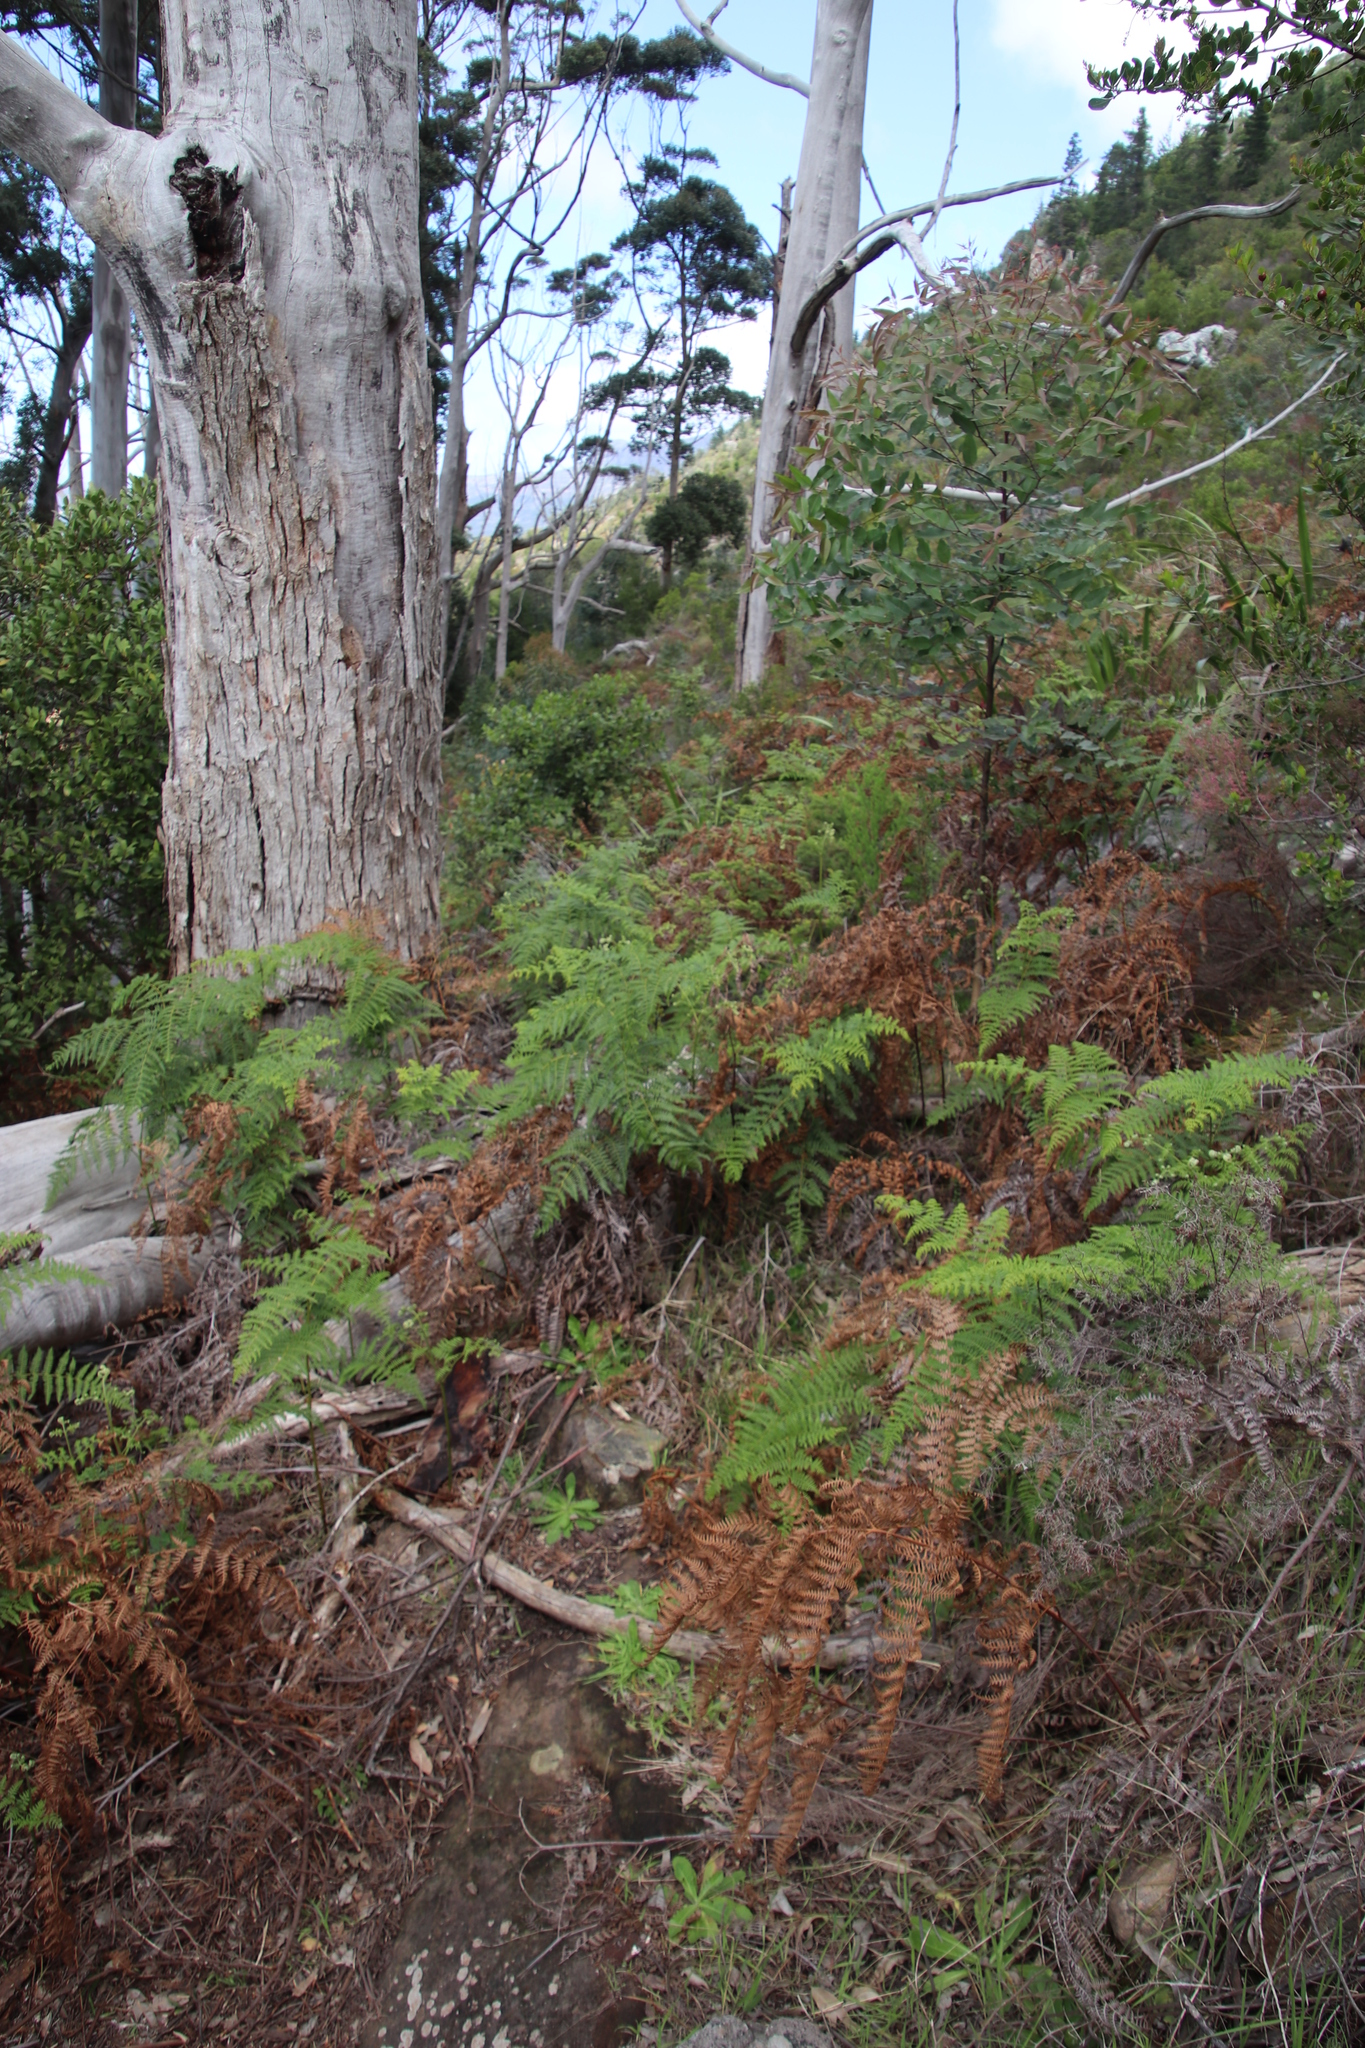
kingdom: Plantae
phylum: Tracheophyta
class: Polypodiopsida
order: Polypodiales
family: Dennstaedtiaceae
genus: Pteridium
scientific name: Pteridium aquilinum
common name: Bracken
